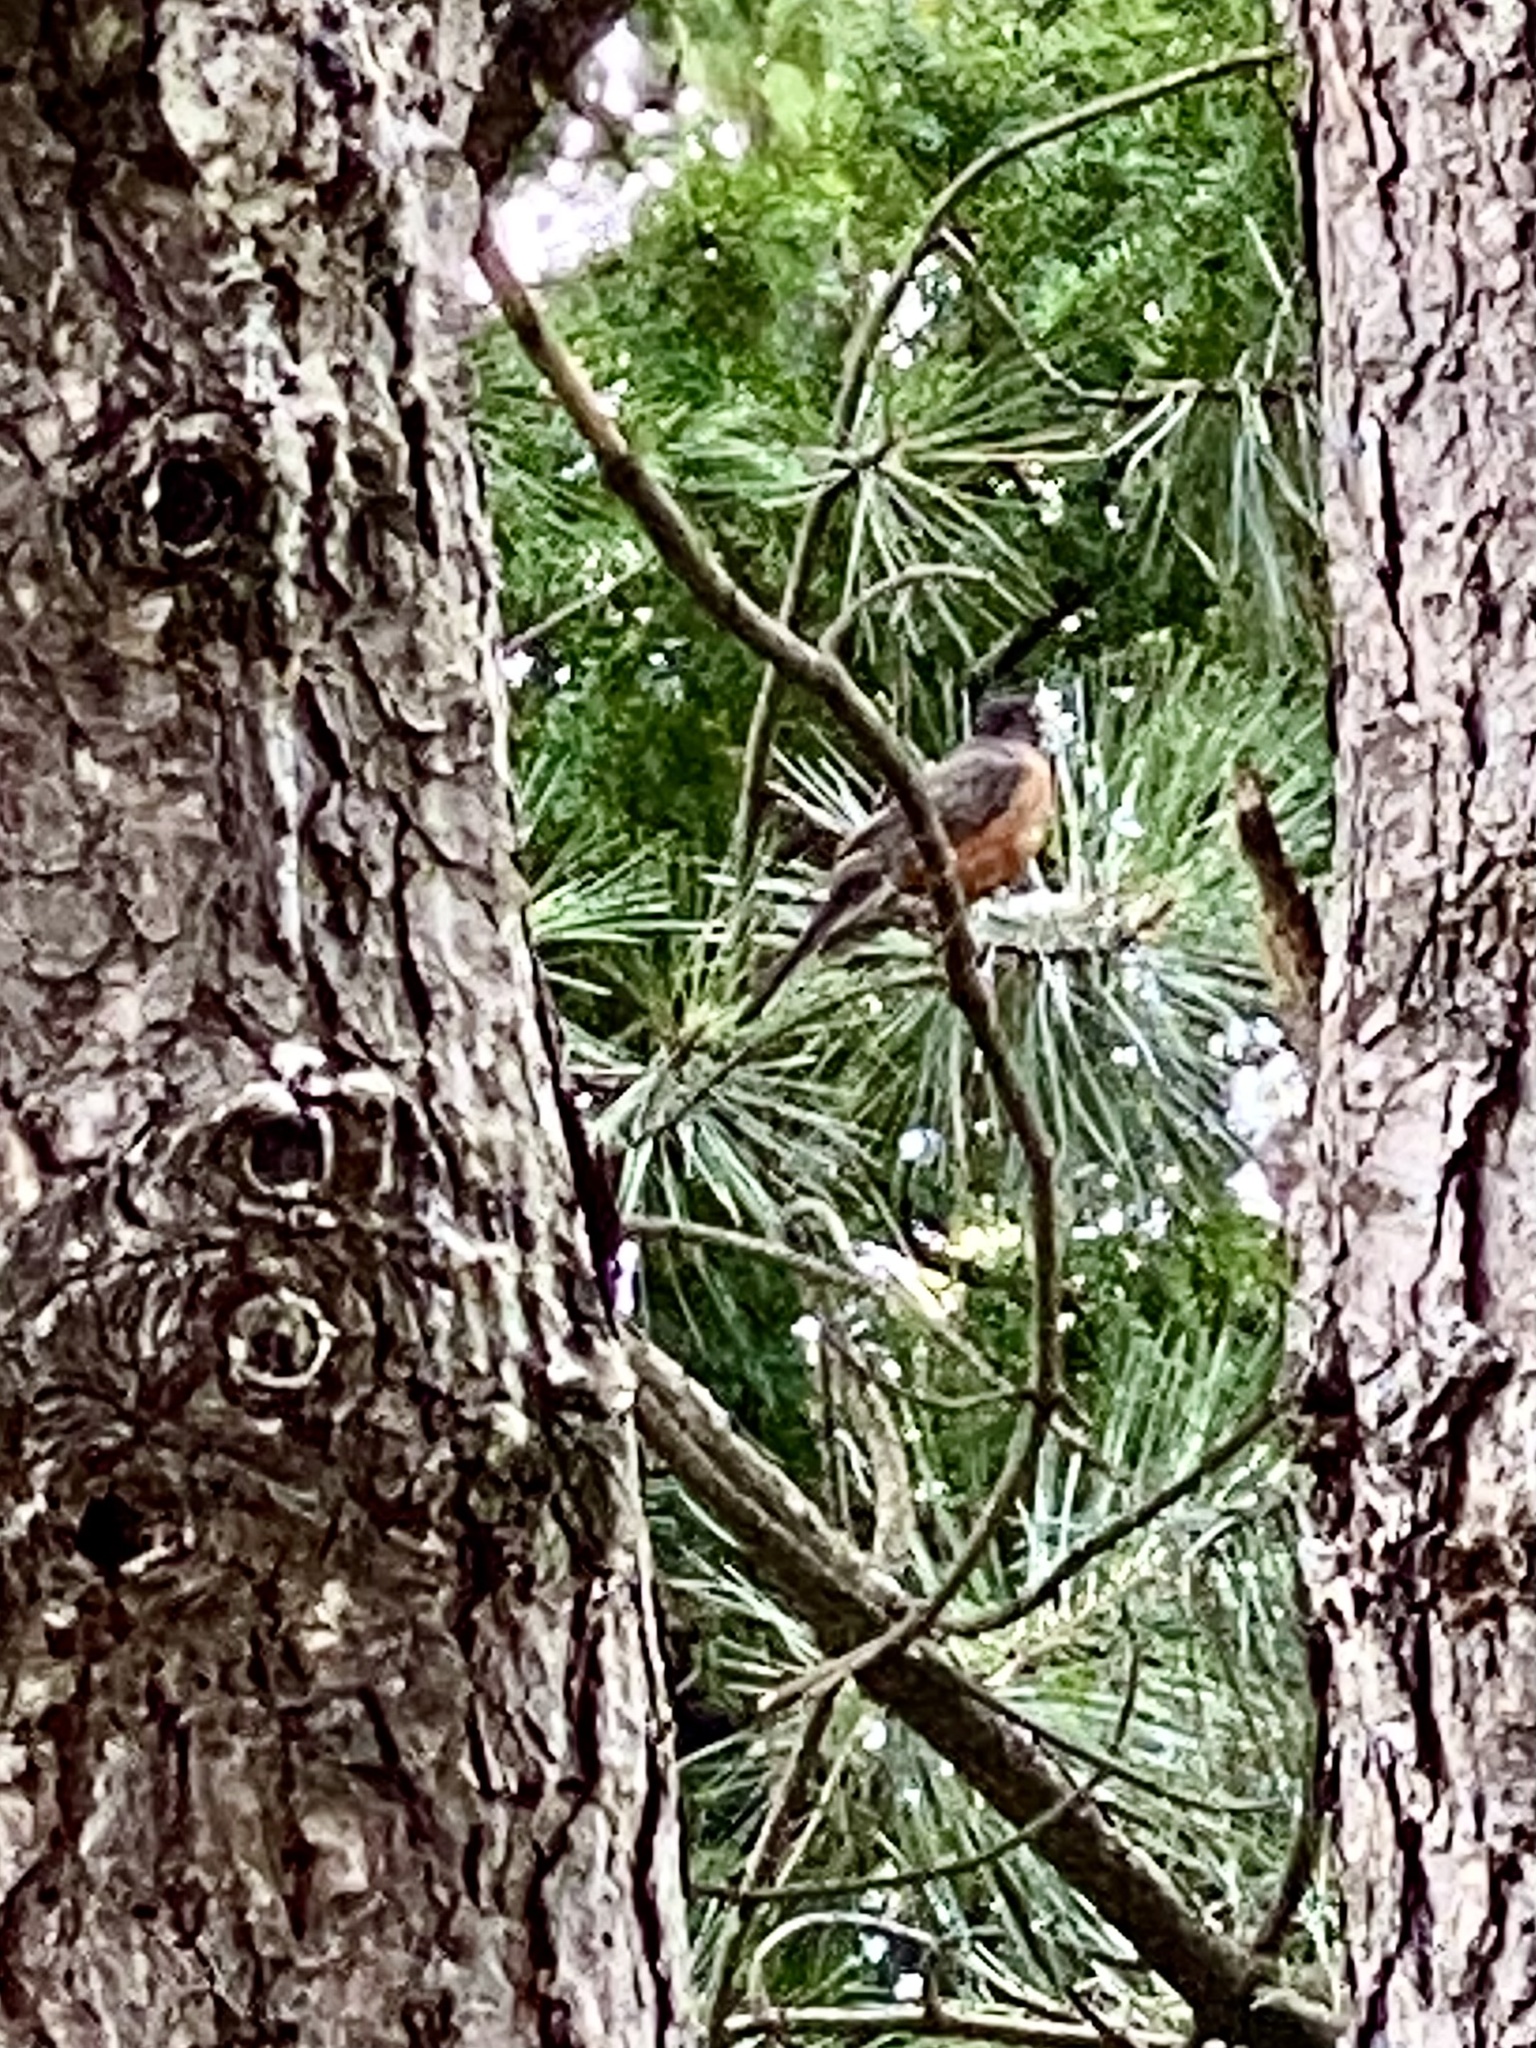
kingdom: Animalia
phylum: Chordata
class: Aves
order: Passeriformes
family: Turdidae
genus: Turdus
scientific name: Turdus migratorius
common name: American robin
